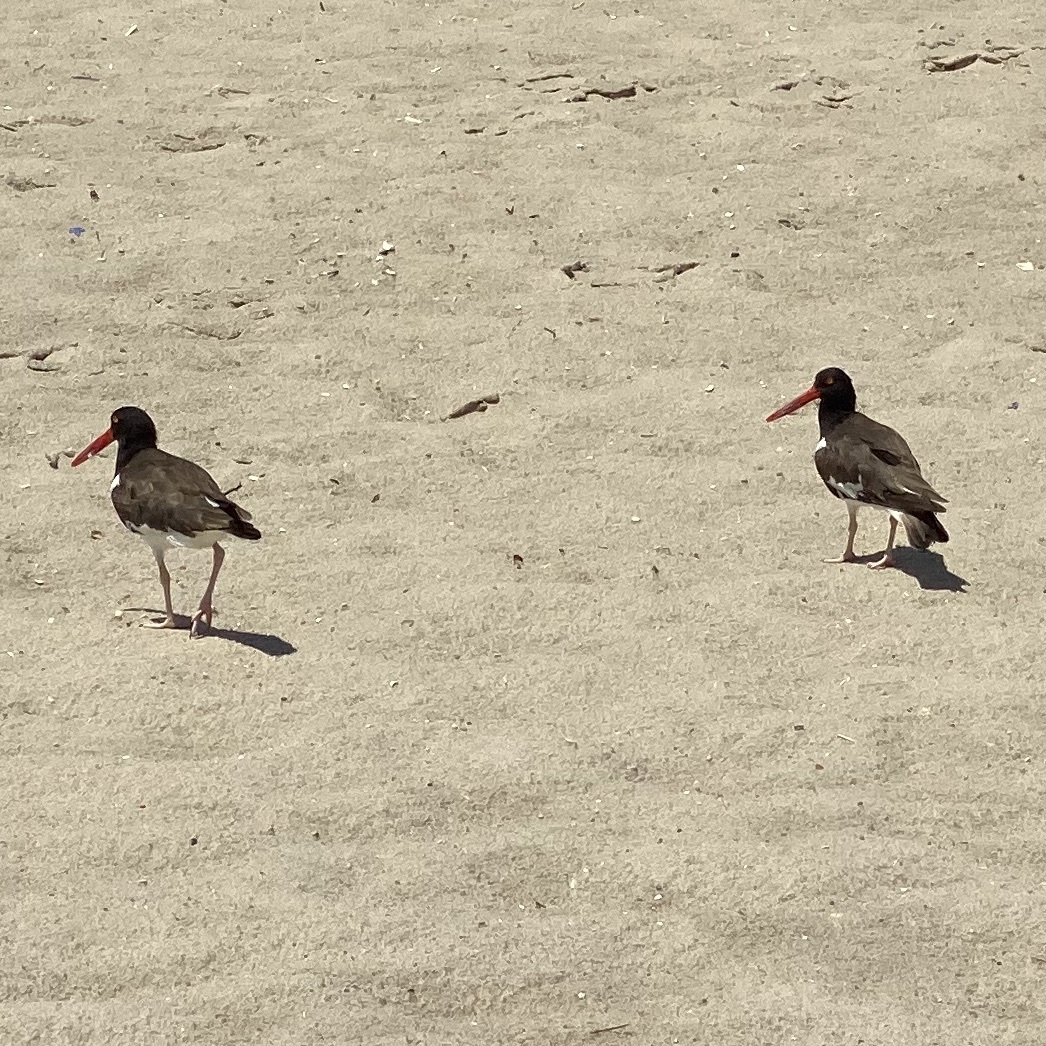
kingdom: Animalia
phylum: Chordata
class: Aves
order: Charadriiformes
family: Haematopodidae
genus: Haematopus
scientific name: Haematopus palliatus
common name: American oystercatcher
